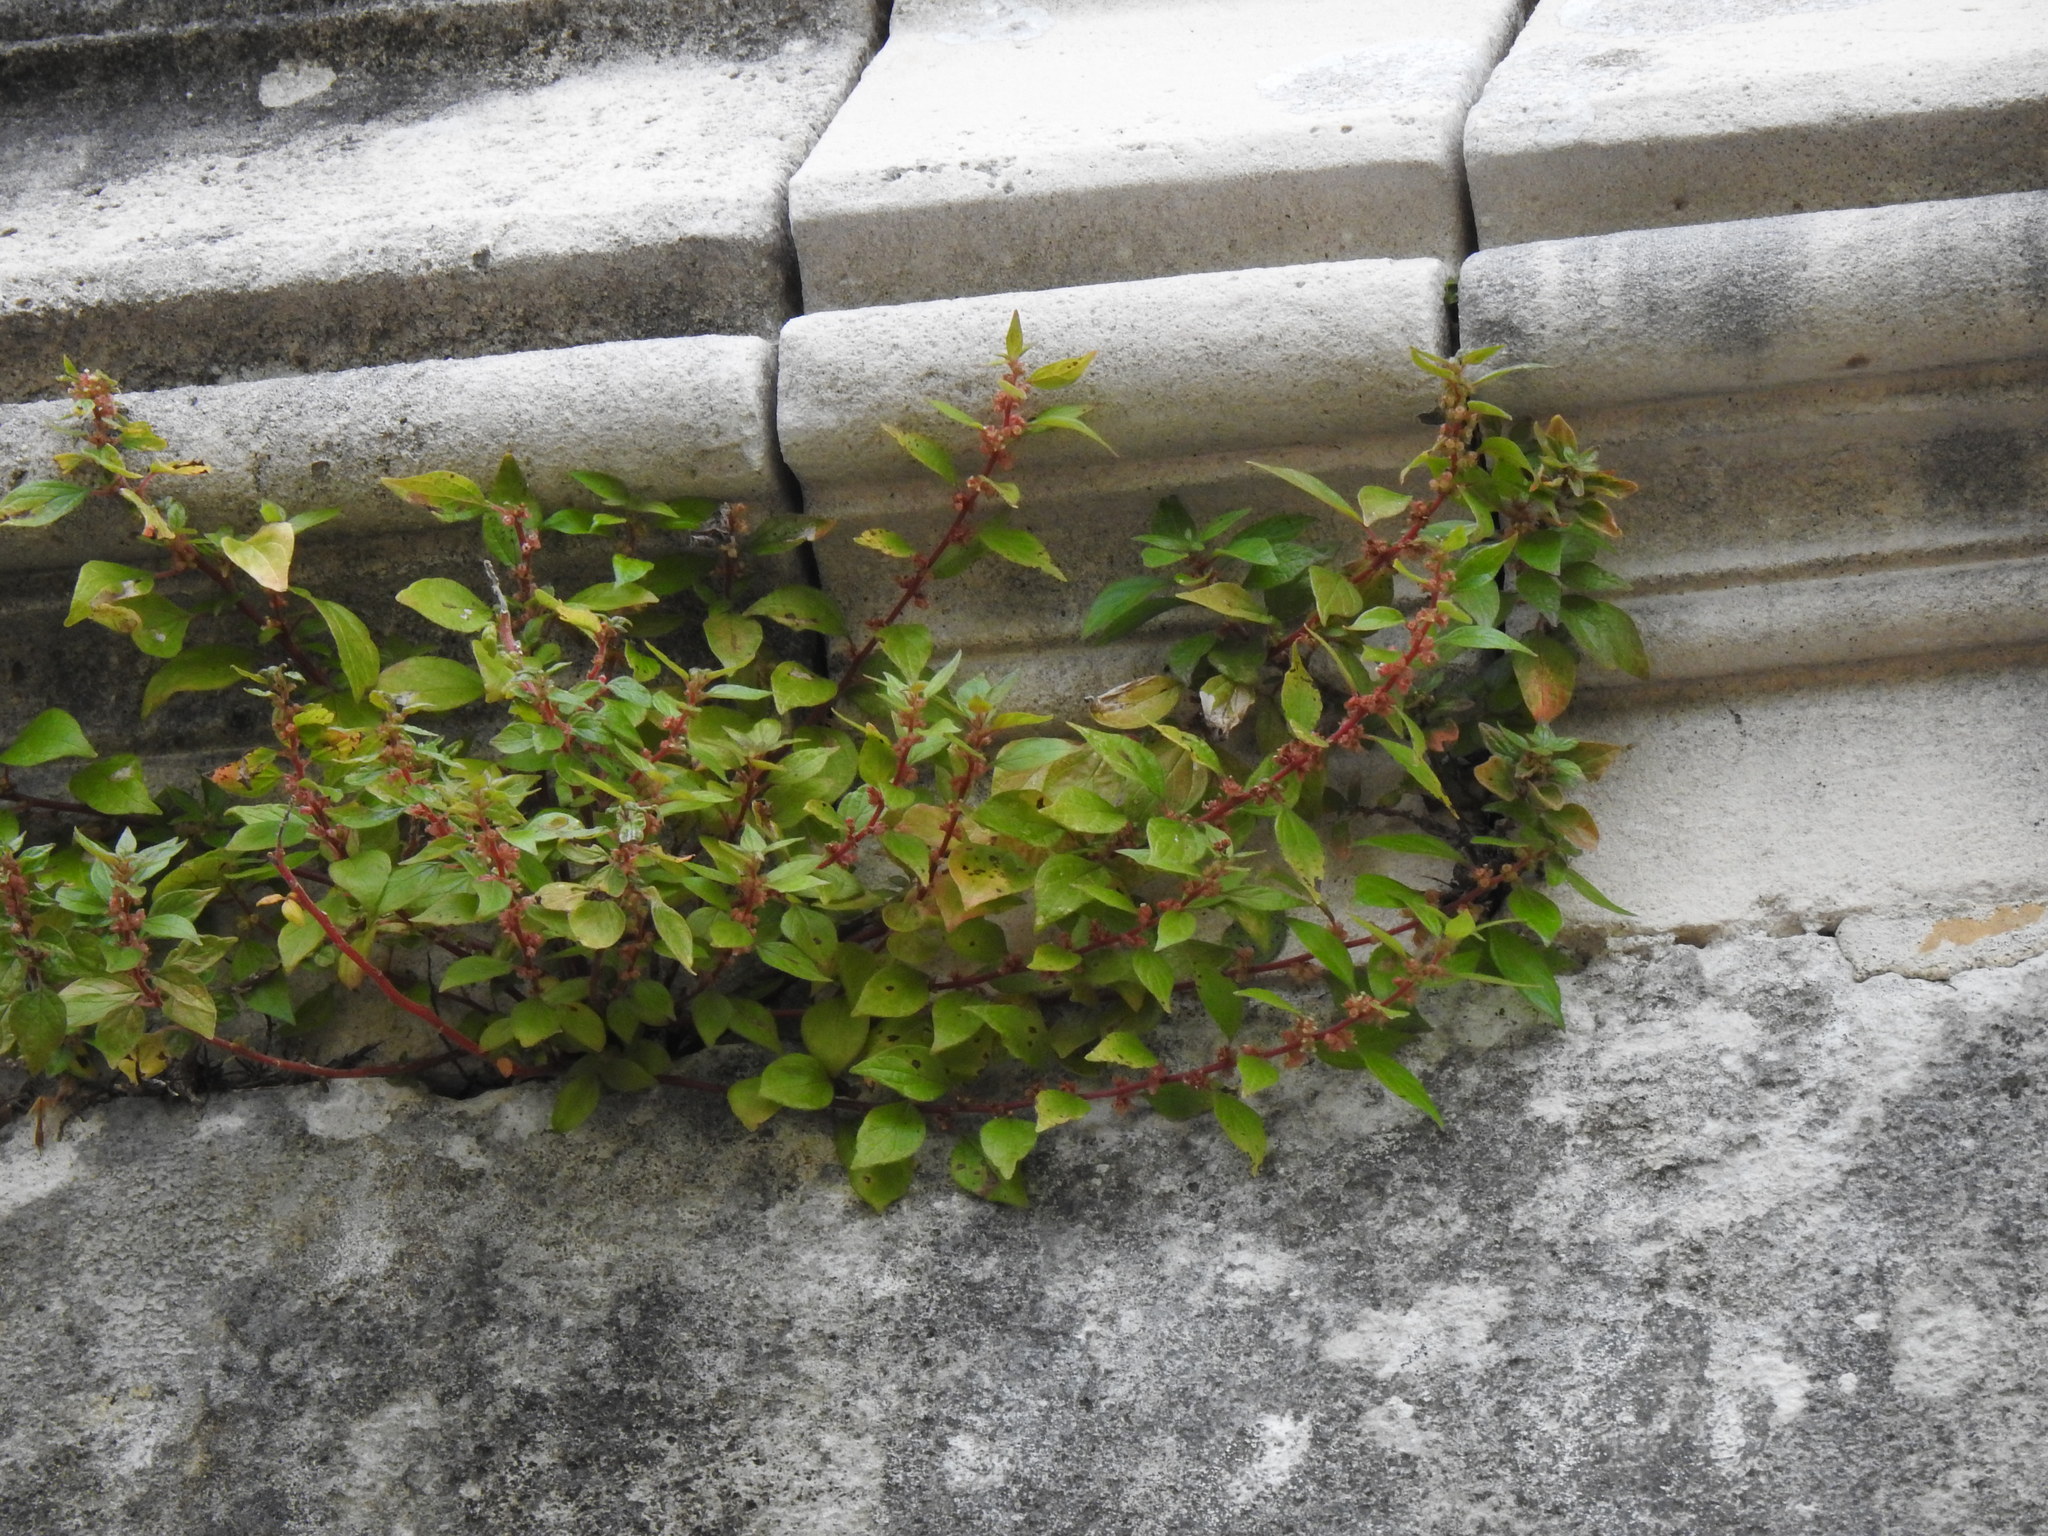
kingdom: Plantae
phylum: Tracheophyta
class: Magnoliopsida
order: Rosales
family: Urticaceae
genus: Parietaria
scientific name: Parietaria judaica
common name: Pellitory-of-the-wall
